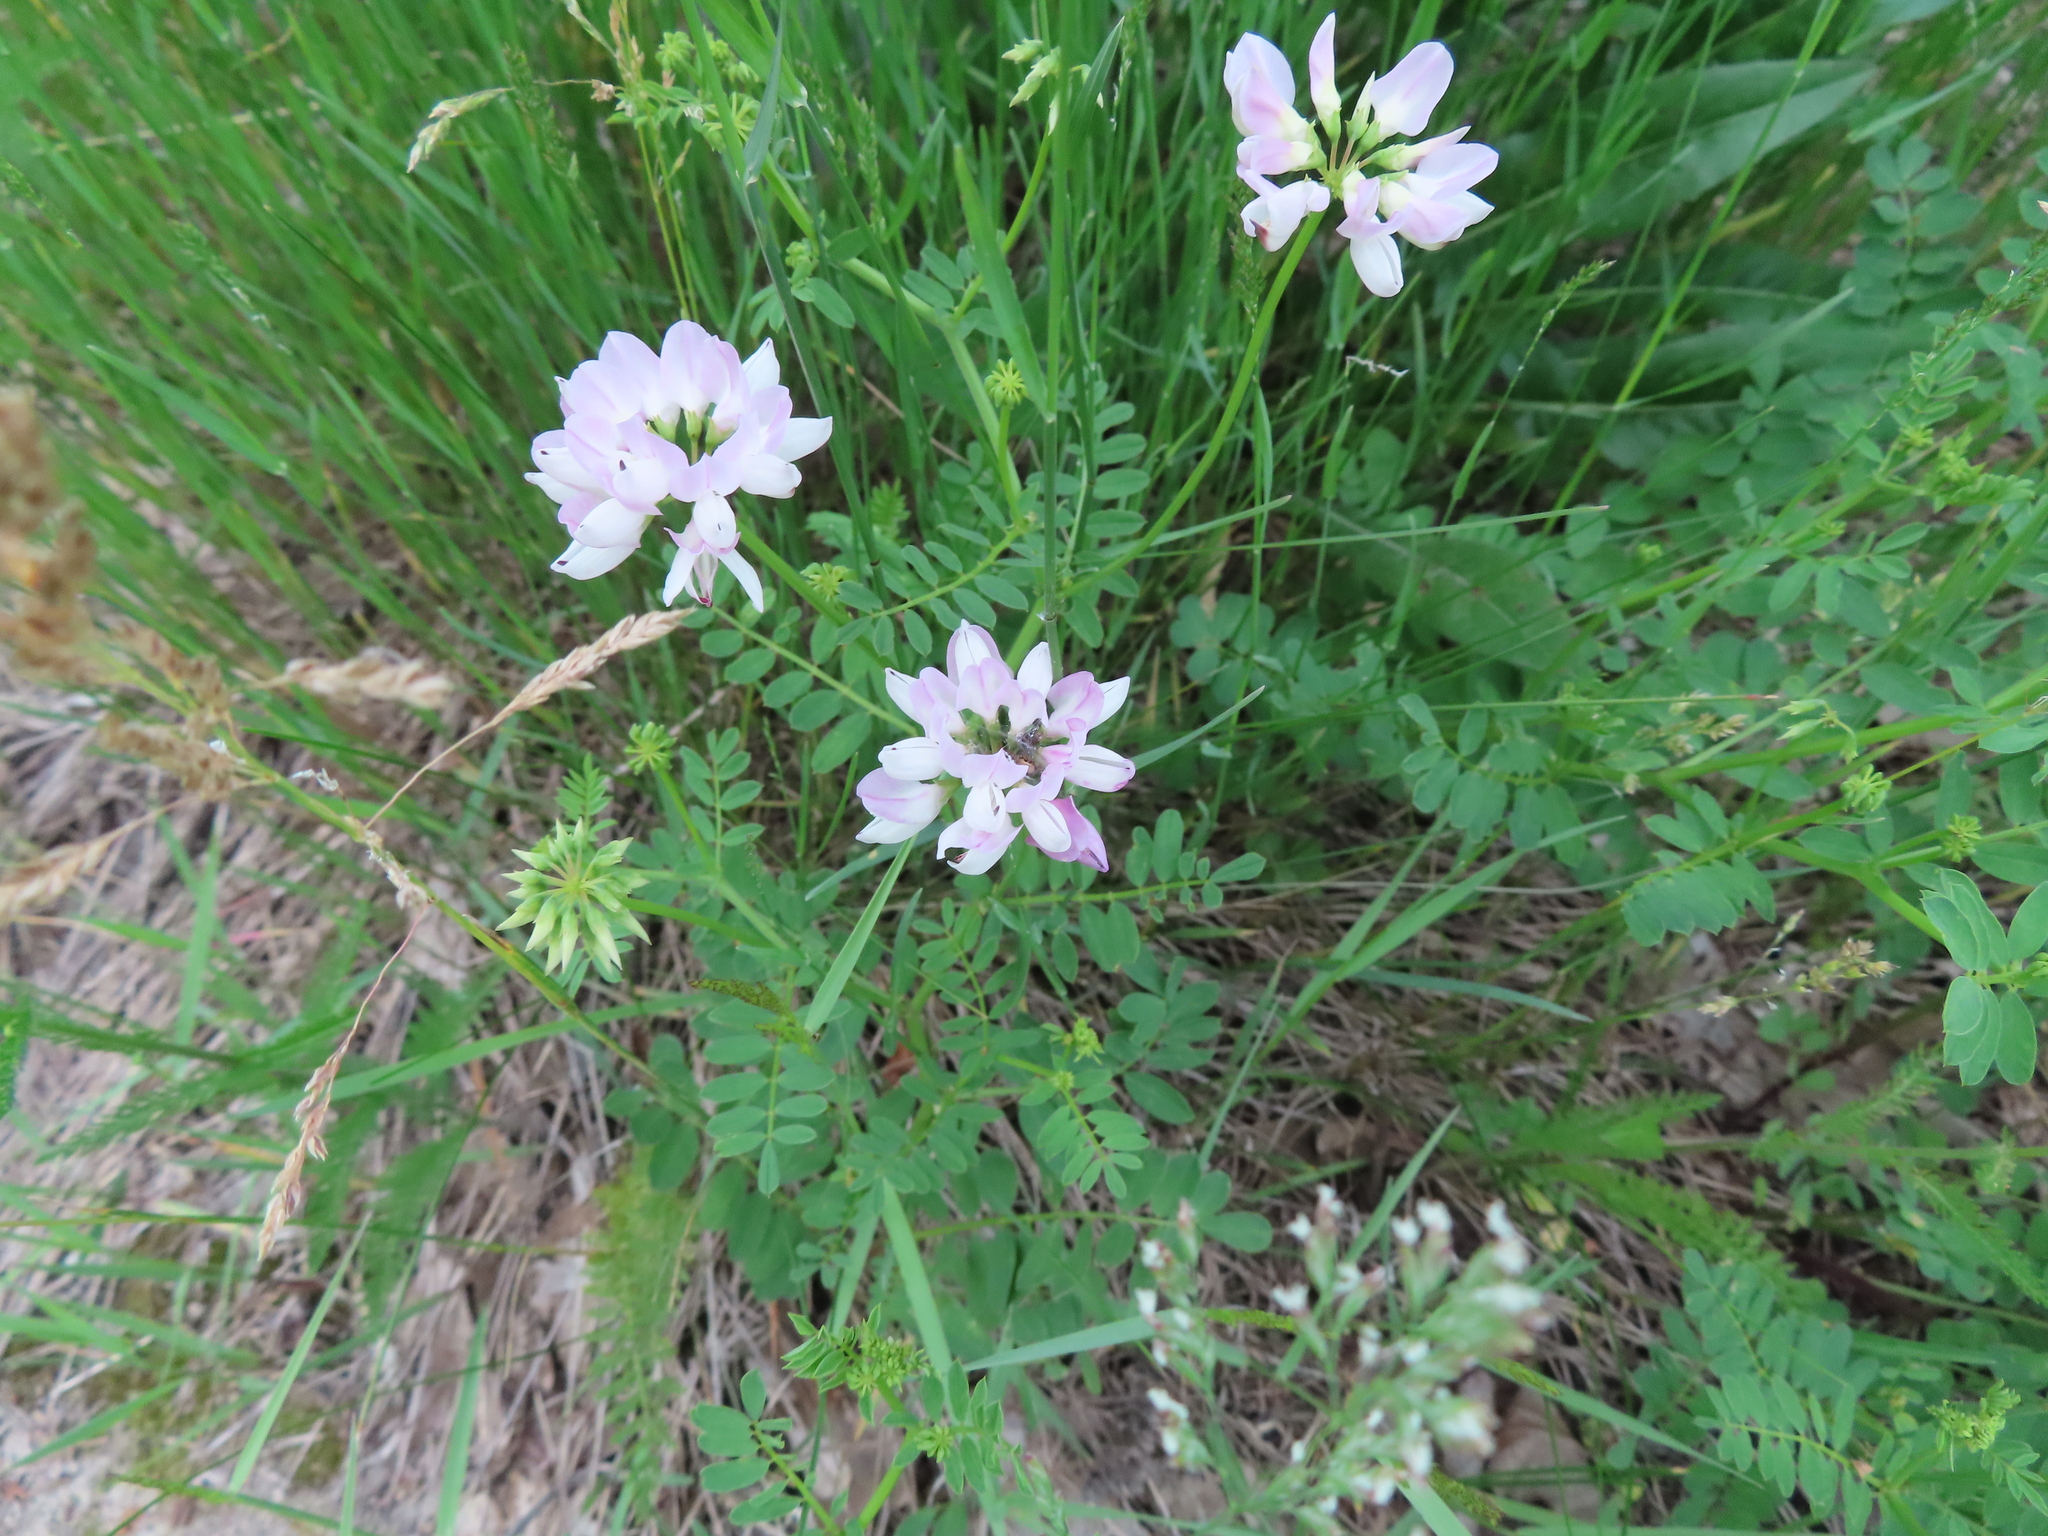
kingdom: Plantae
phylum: Tracheophyta
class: Magnoliopsida
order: Fabales
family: Fabaceae
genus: Coronilla
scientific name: Coronilla varia
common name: Crownvetch
